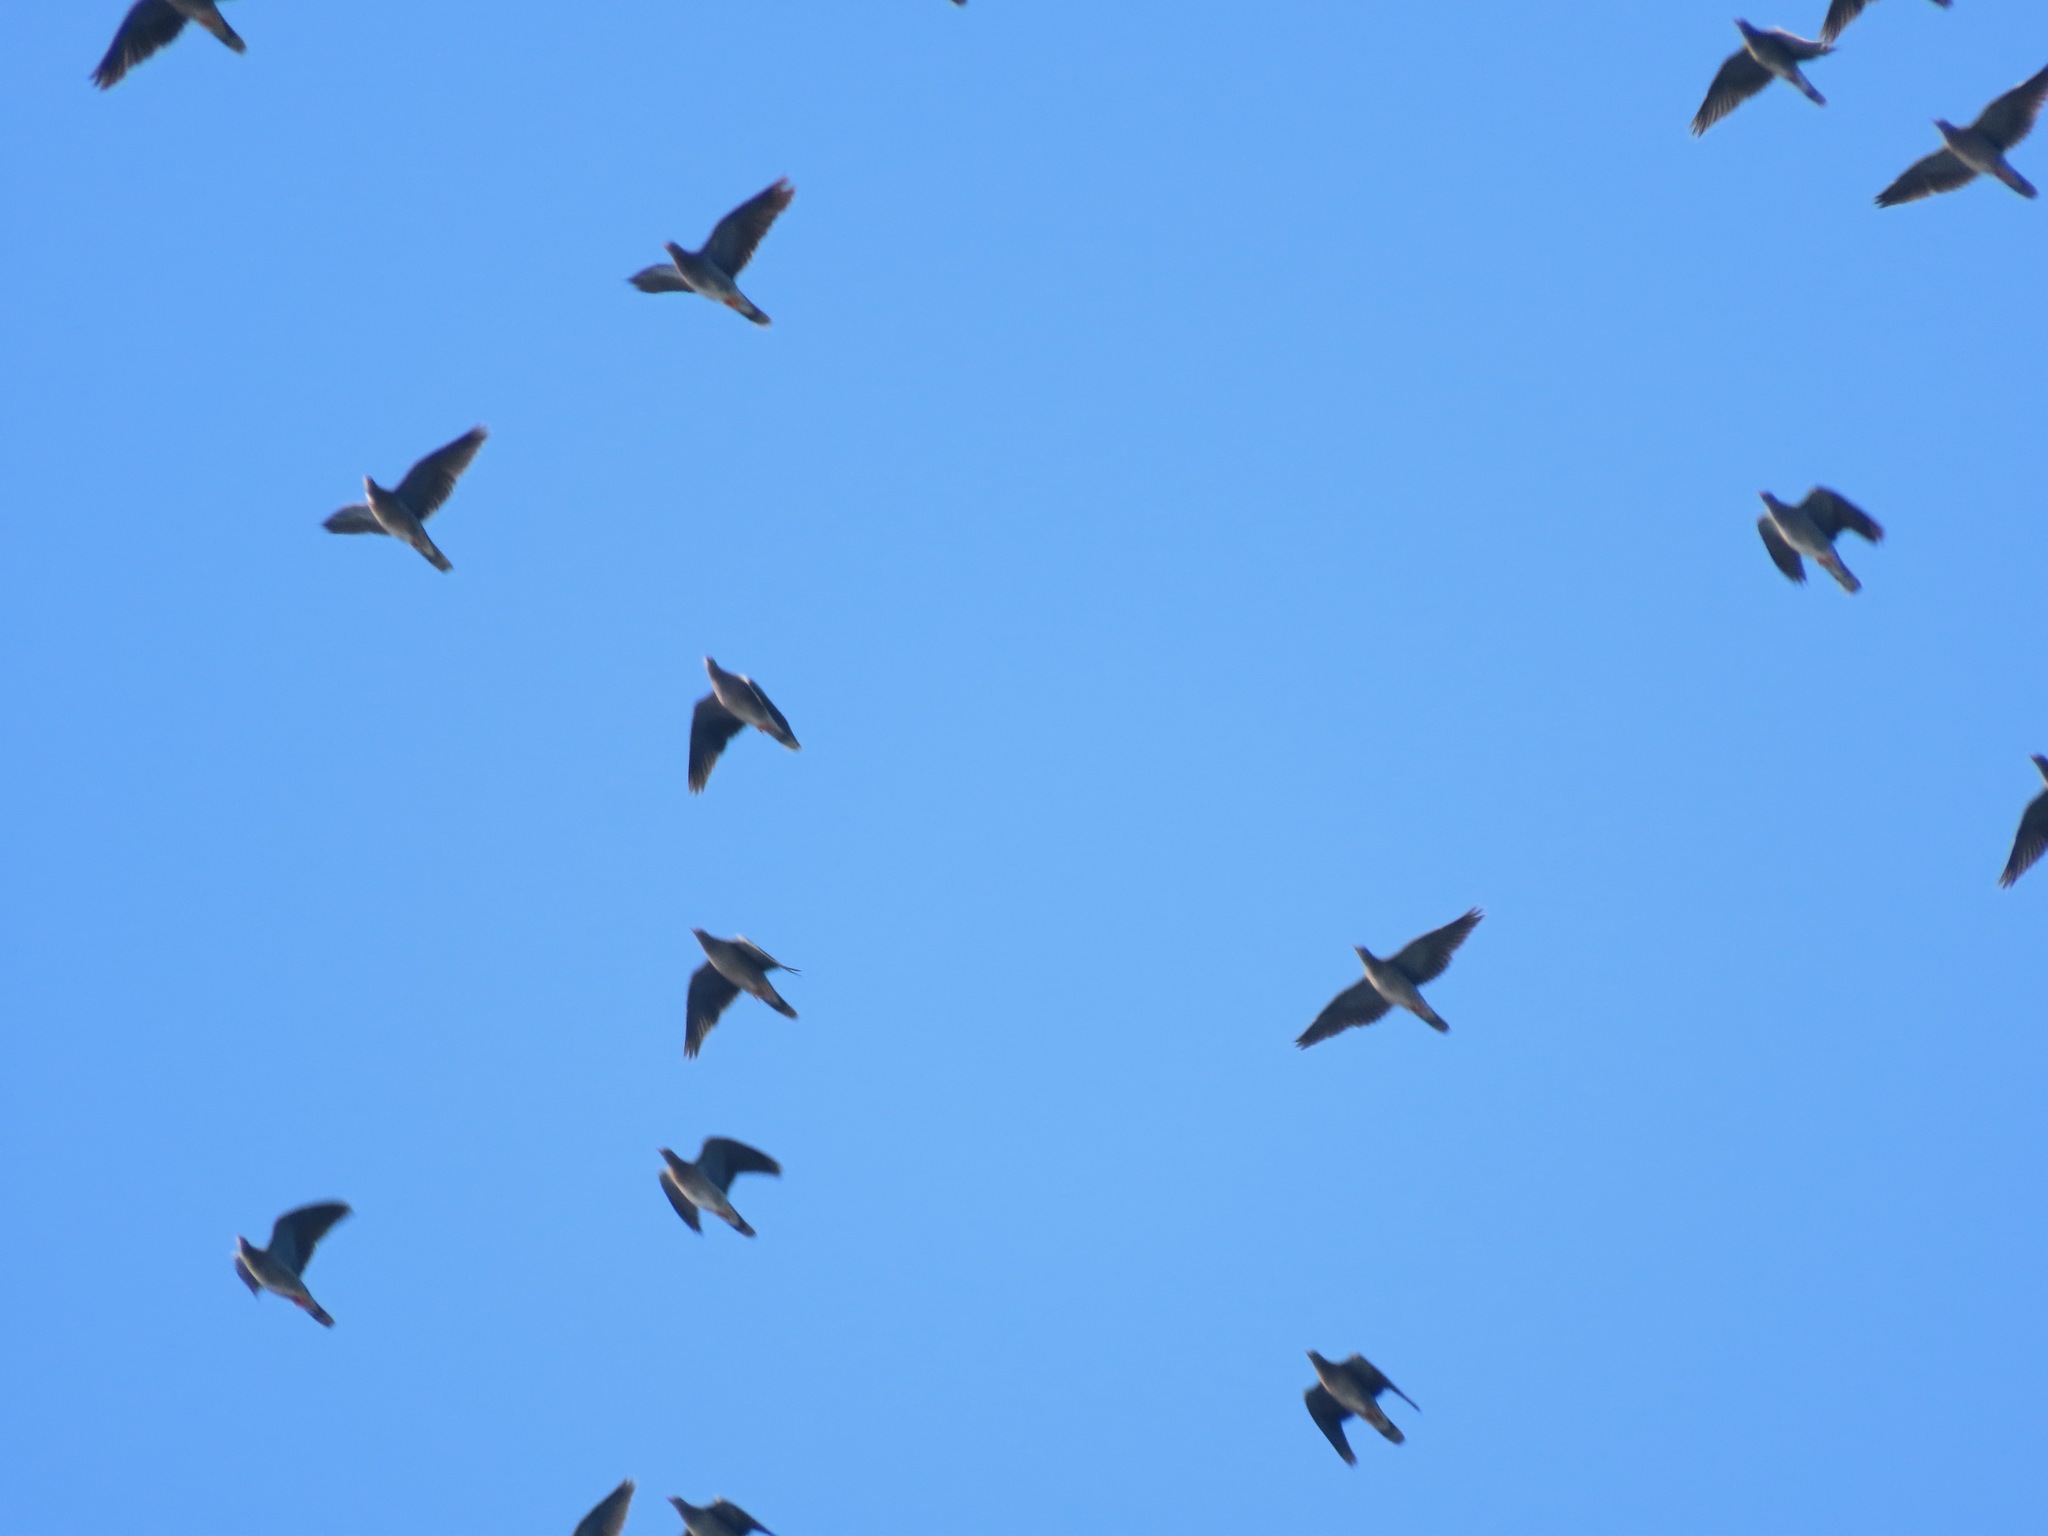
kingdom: Animalia
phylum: Chordata
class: Aves
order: Columbiformes
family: Columbidae
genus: Patagioenas
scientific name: Patagioenas fasciata
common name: Band-tailed pigeon
